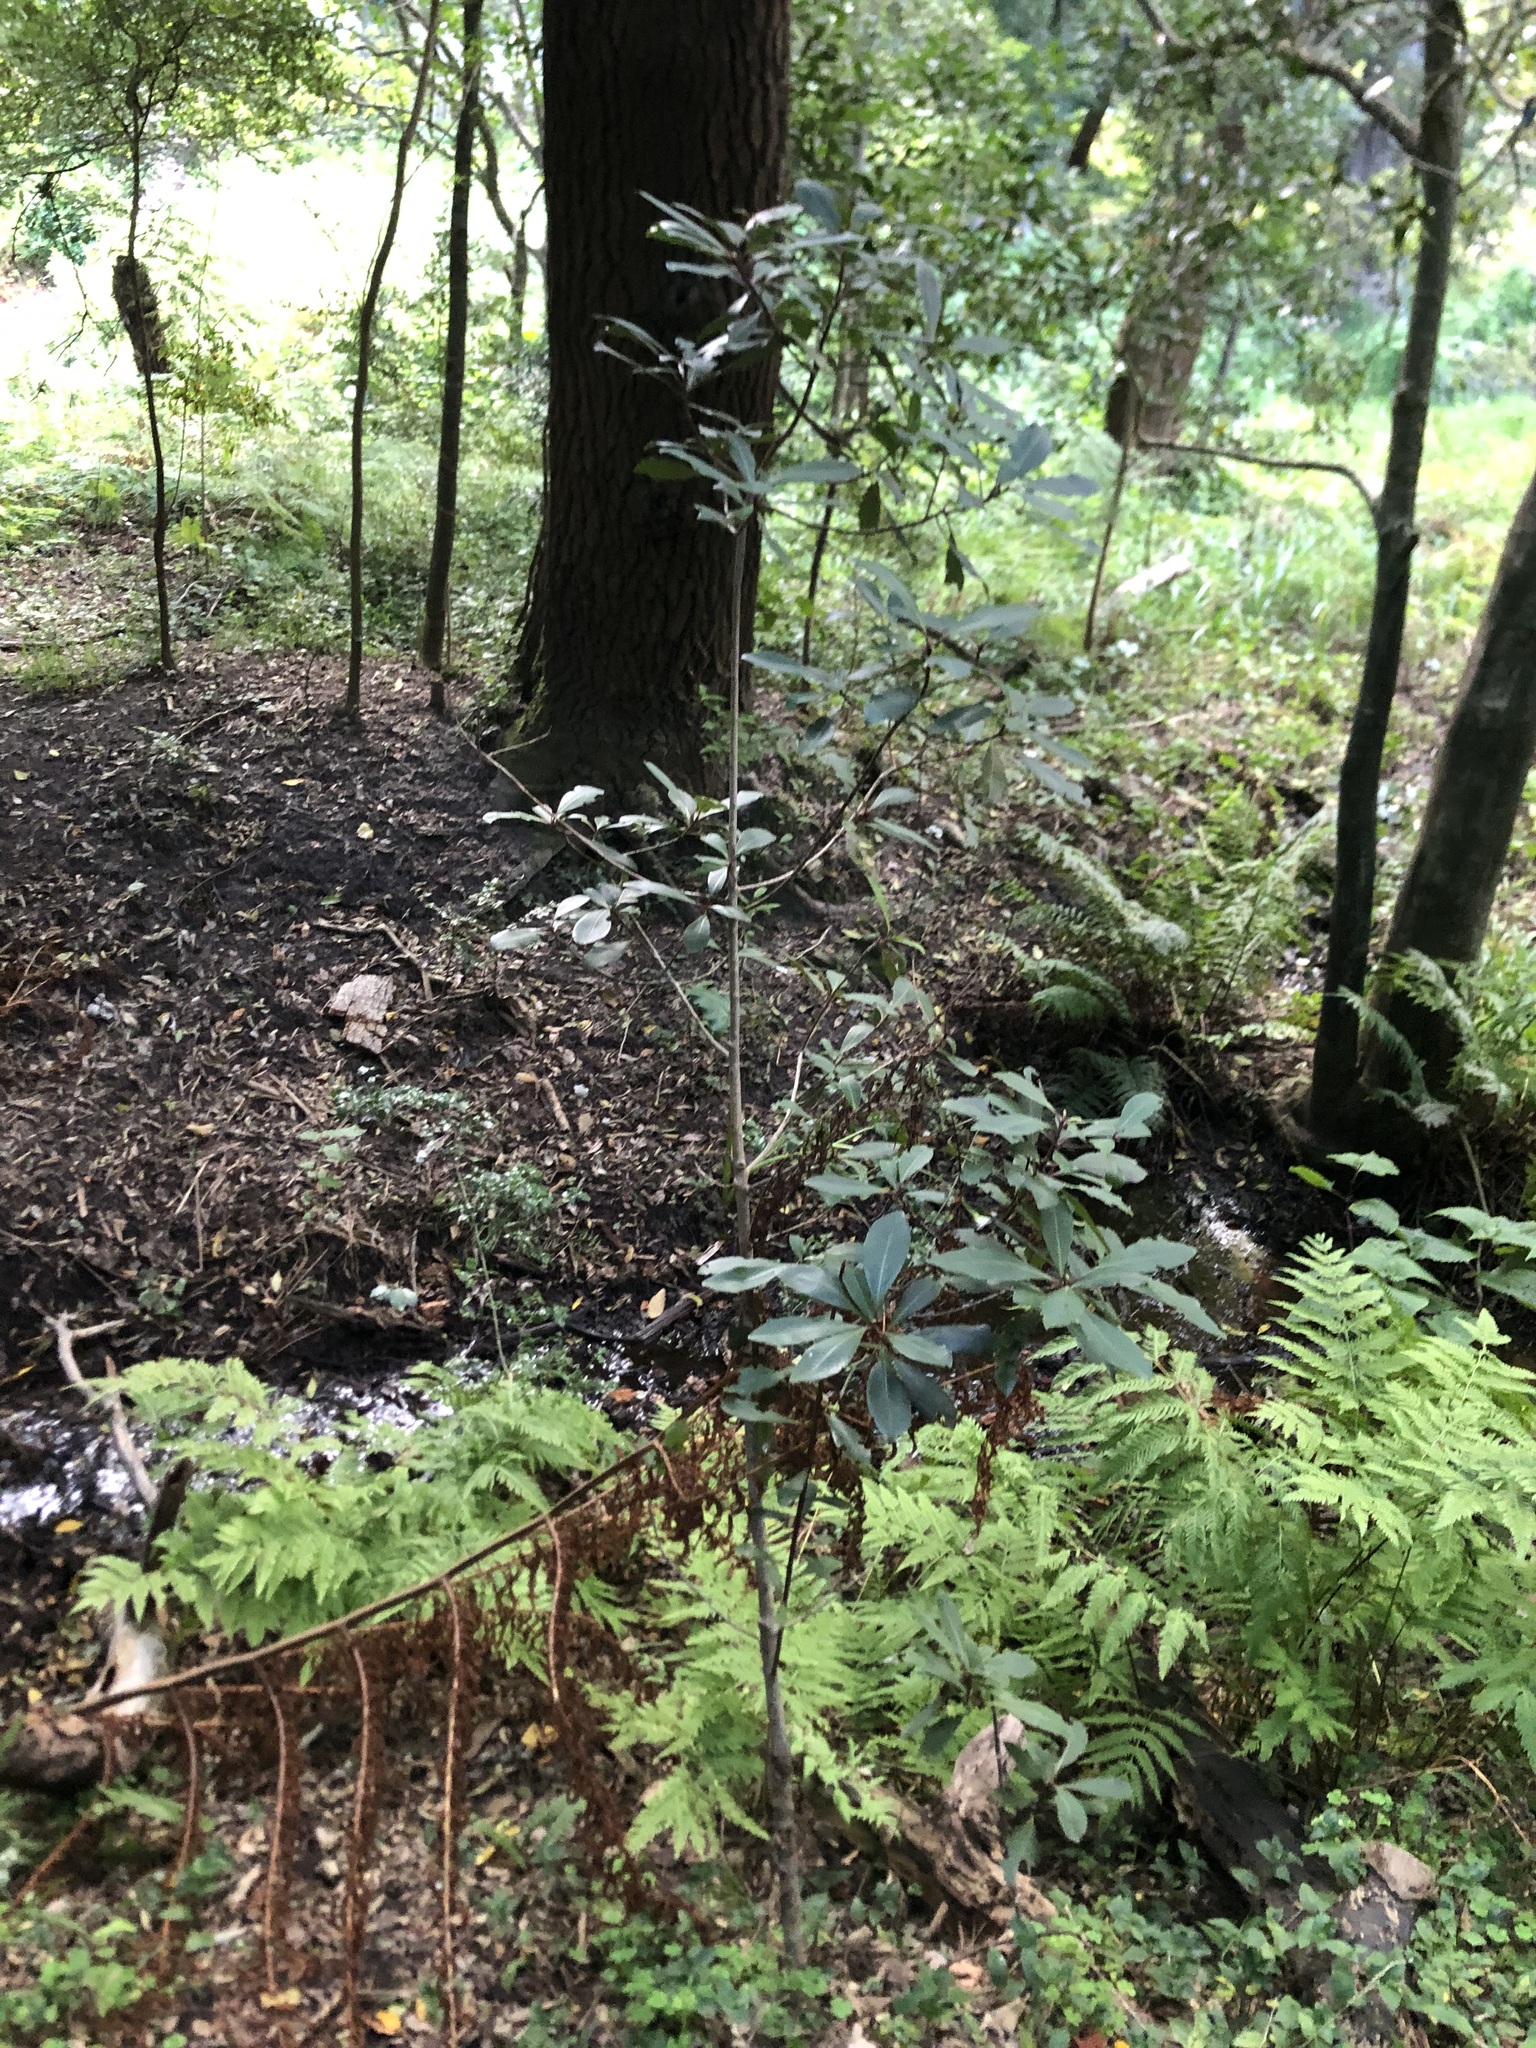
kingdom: Plantae
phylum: Tracheophyta
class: Magnoliopsida
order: Ericales
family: Primulaceae
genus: Myrsine
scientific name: Myrsine melanophloeos
